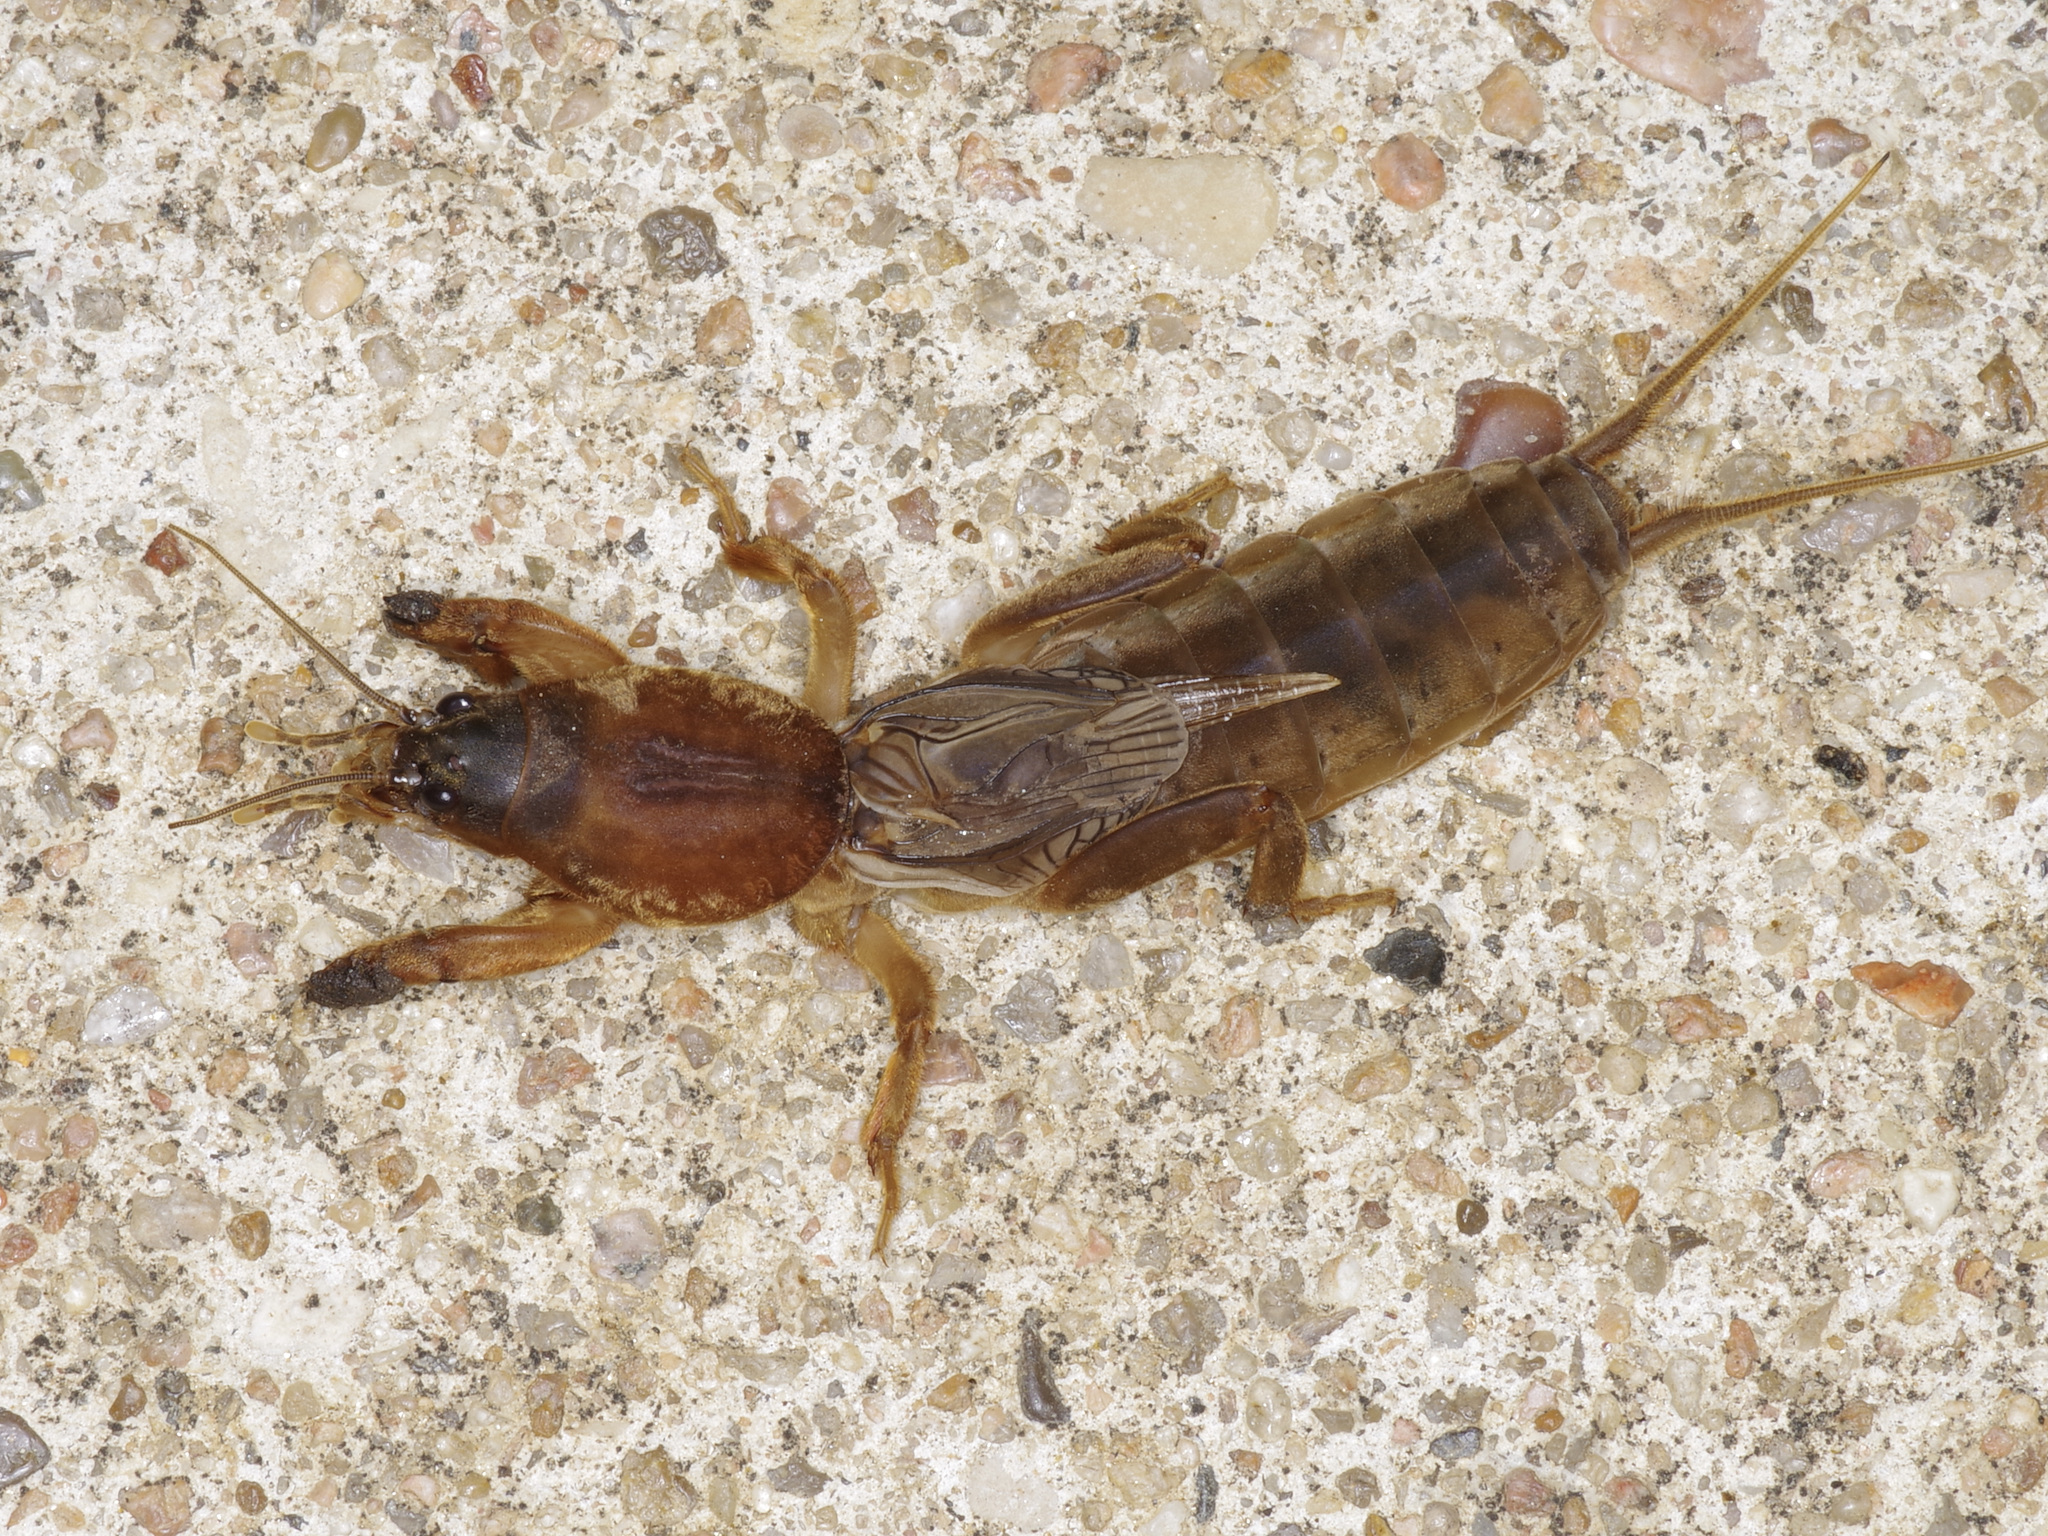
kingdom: Animalia
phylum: Arthropoda
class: Insecta
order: Orthoptera
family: Gryllotalpidae
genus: Neocurtilla
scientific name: Neocurtilla hexadactyla
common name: Northern mole cricket
